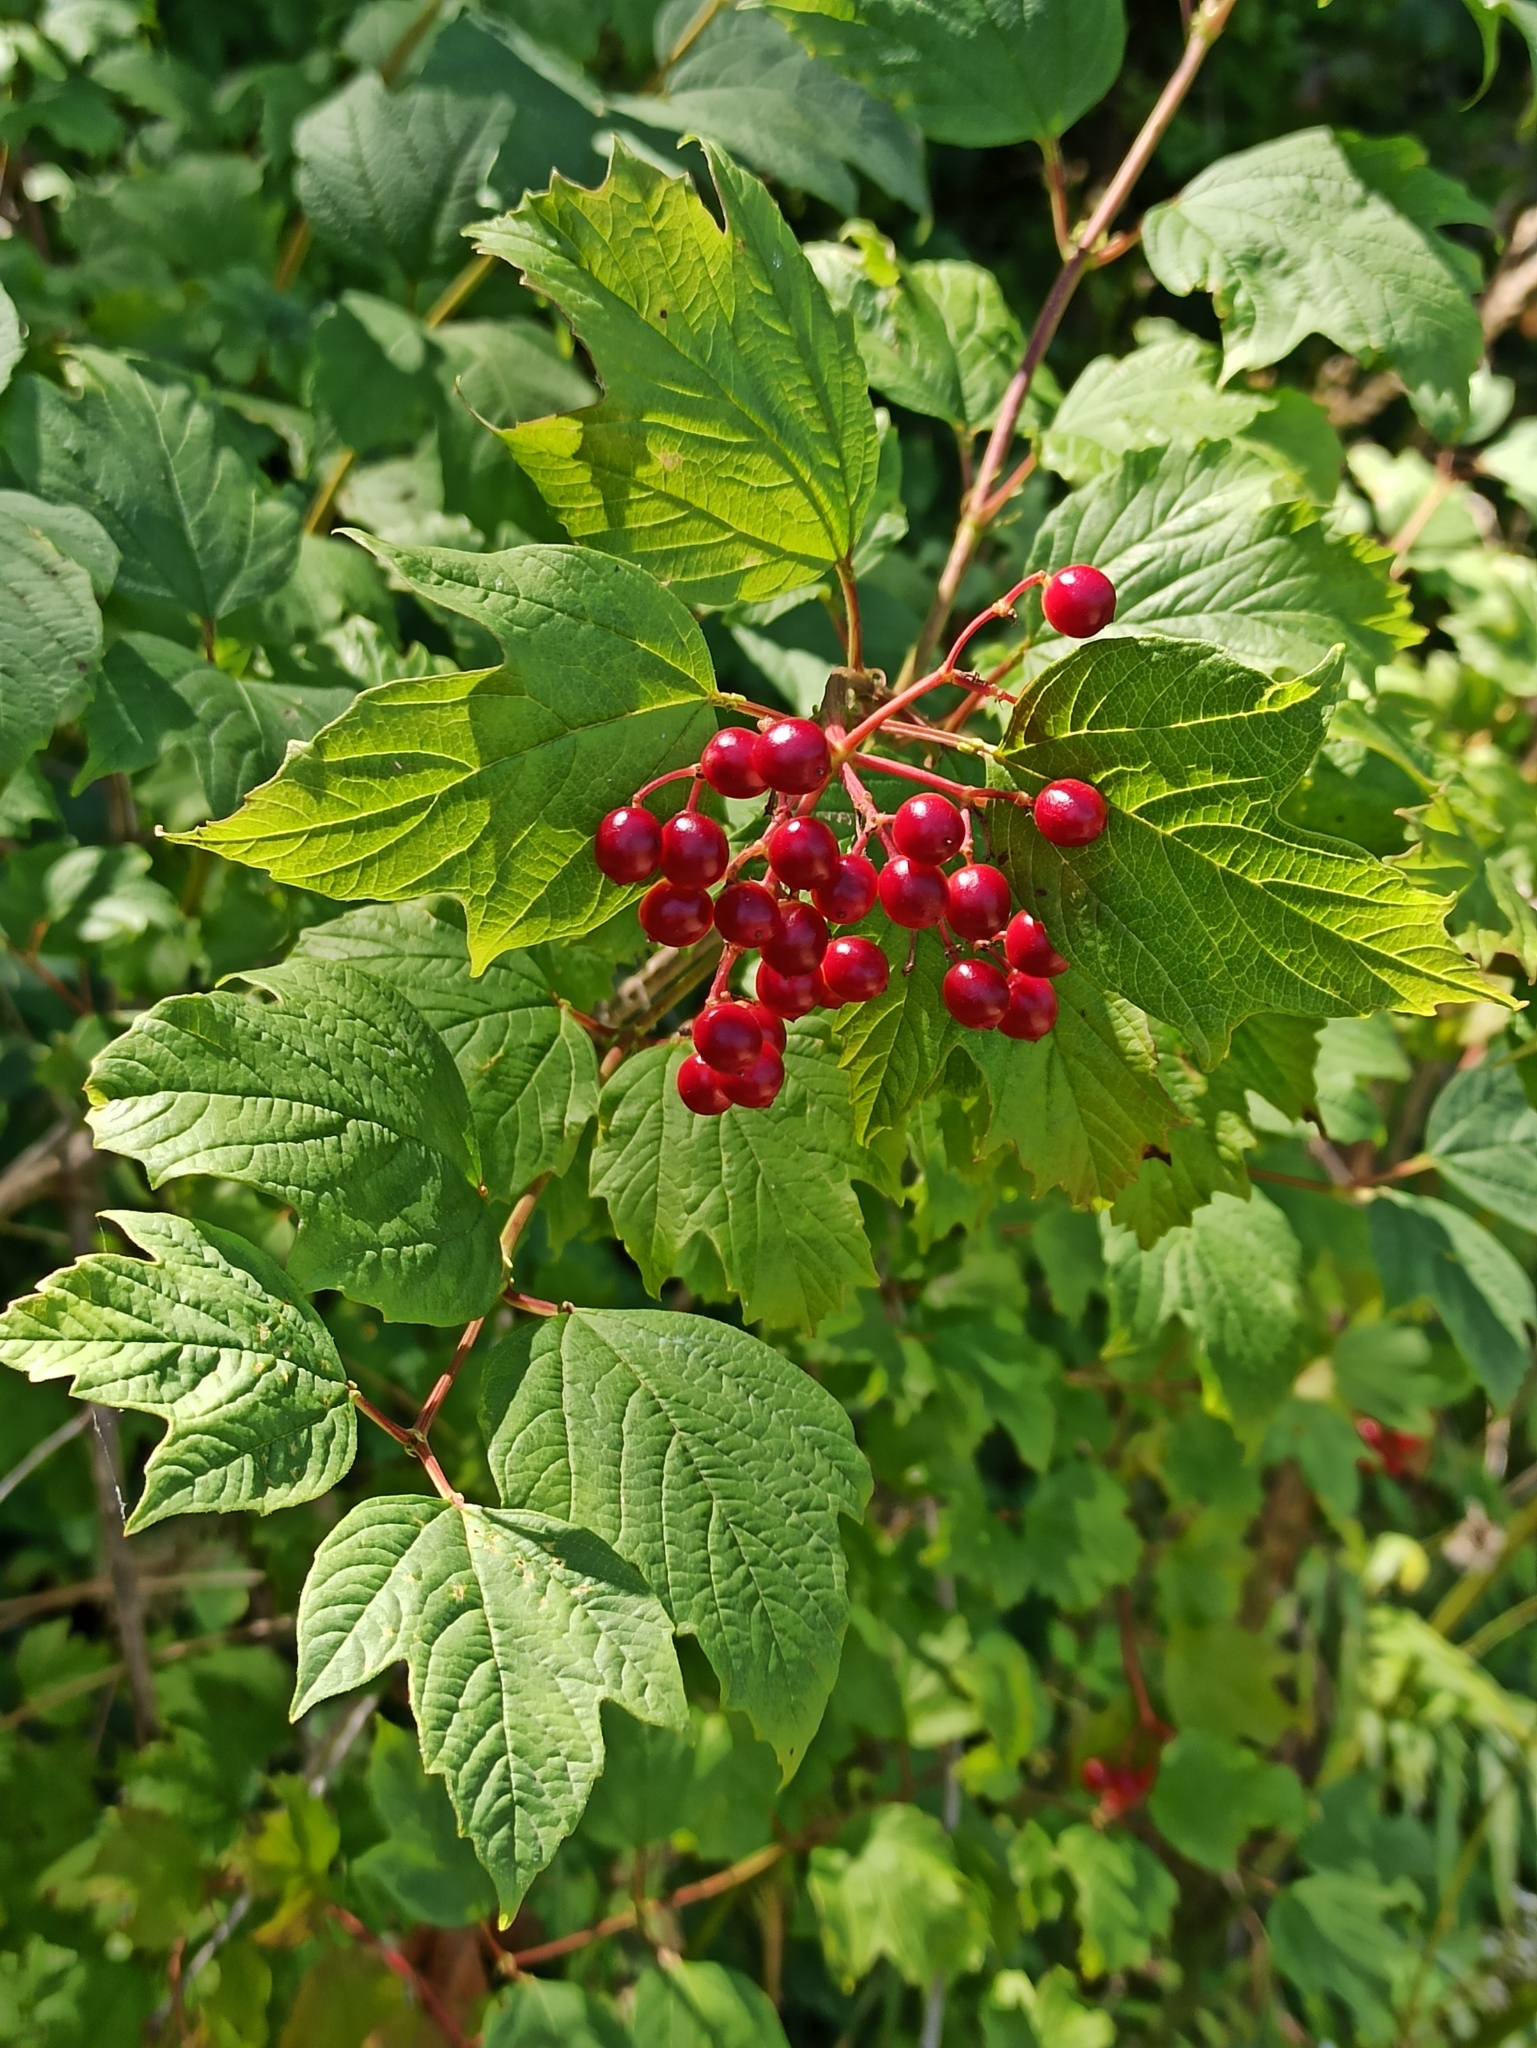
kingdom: Plantae
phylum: Tracheophyta
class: Magnoliopsida
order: Dipsacales
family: Viburnaceae
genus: Viburnum
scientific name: Viburnum opulus
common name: Guelder-rose
